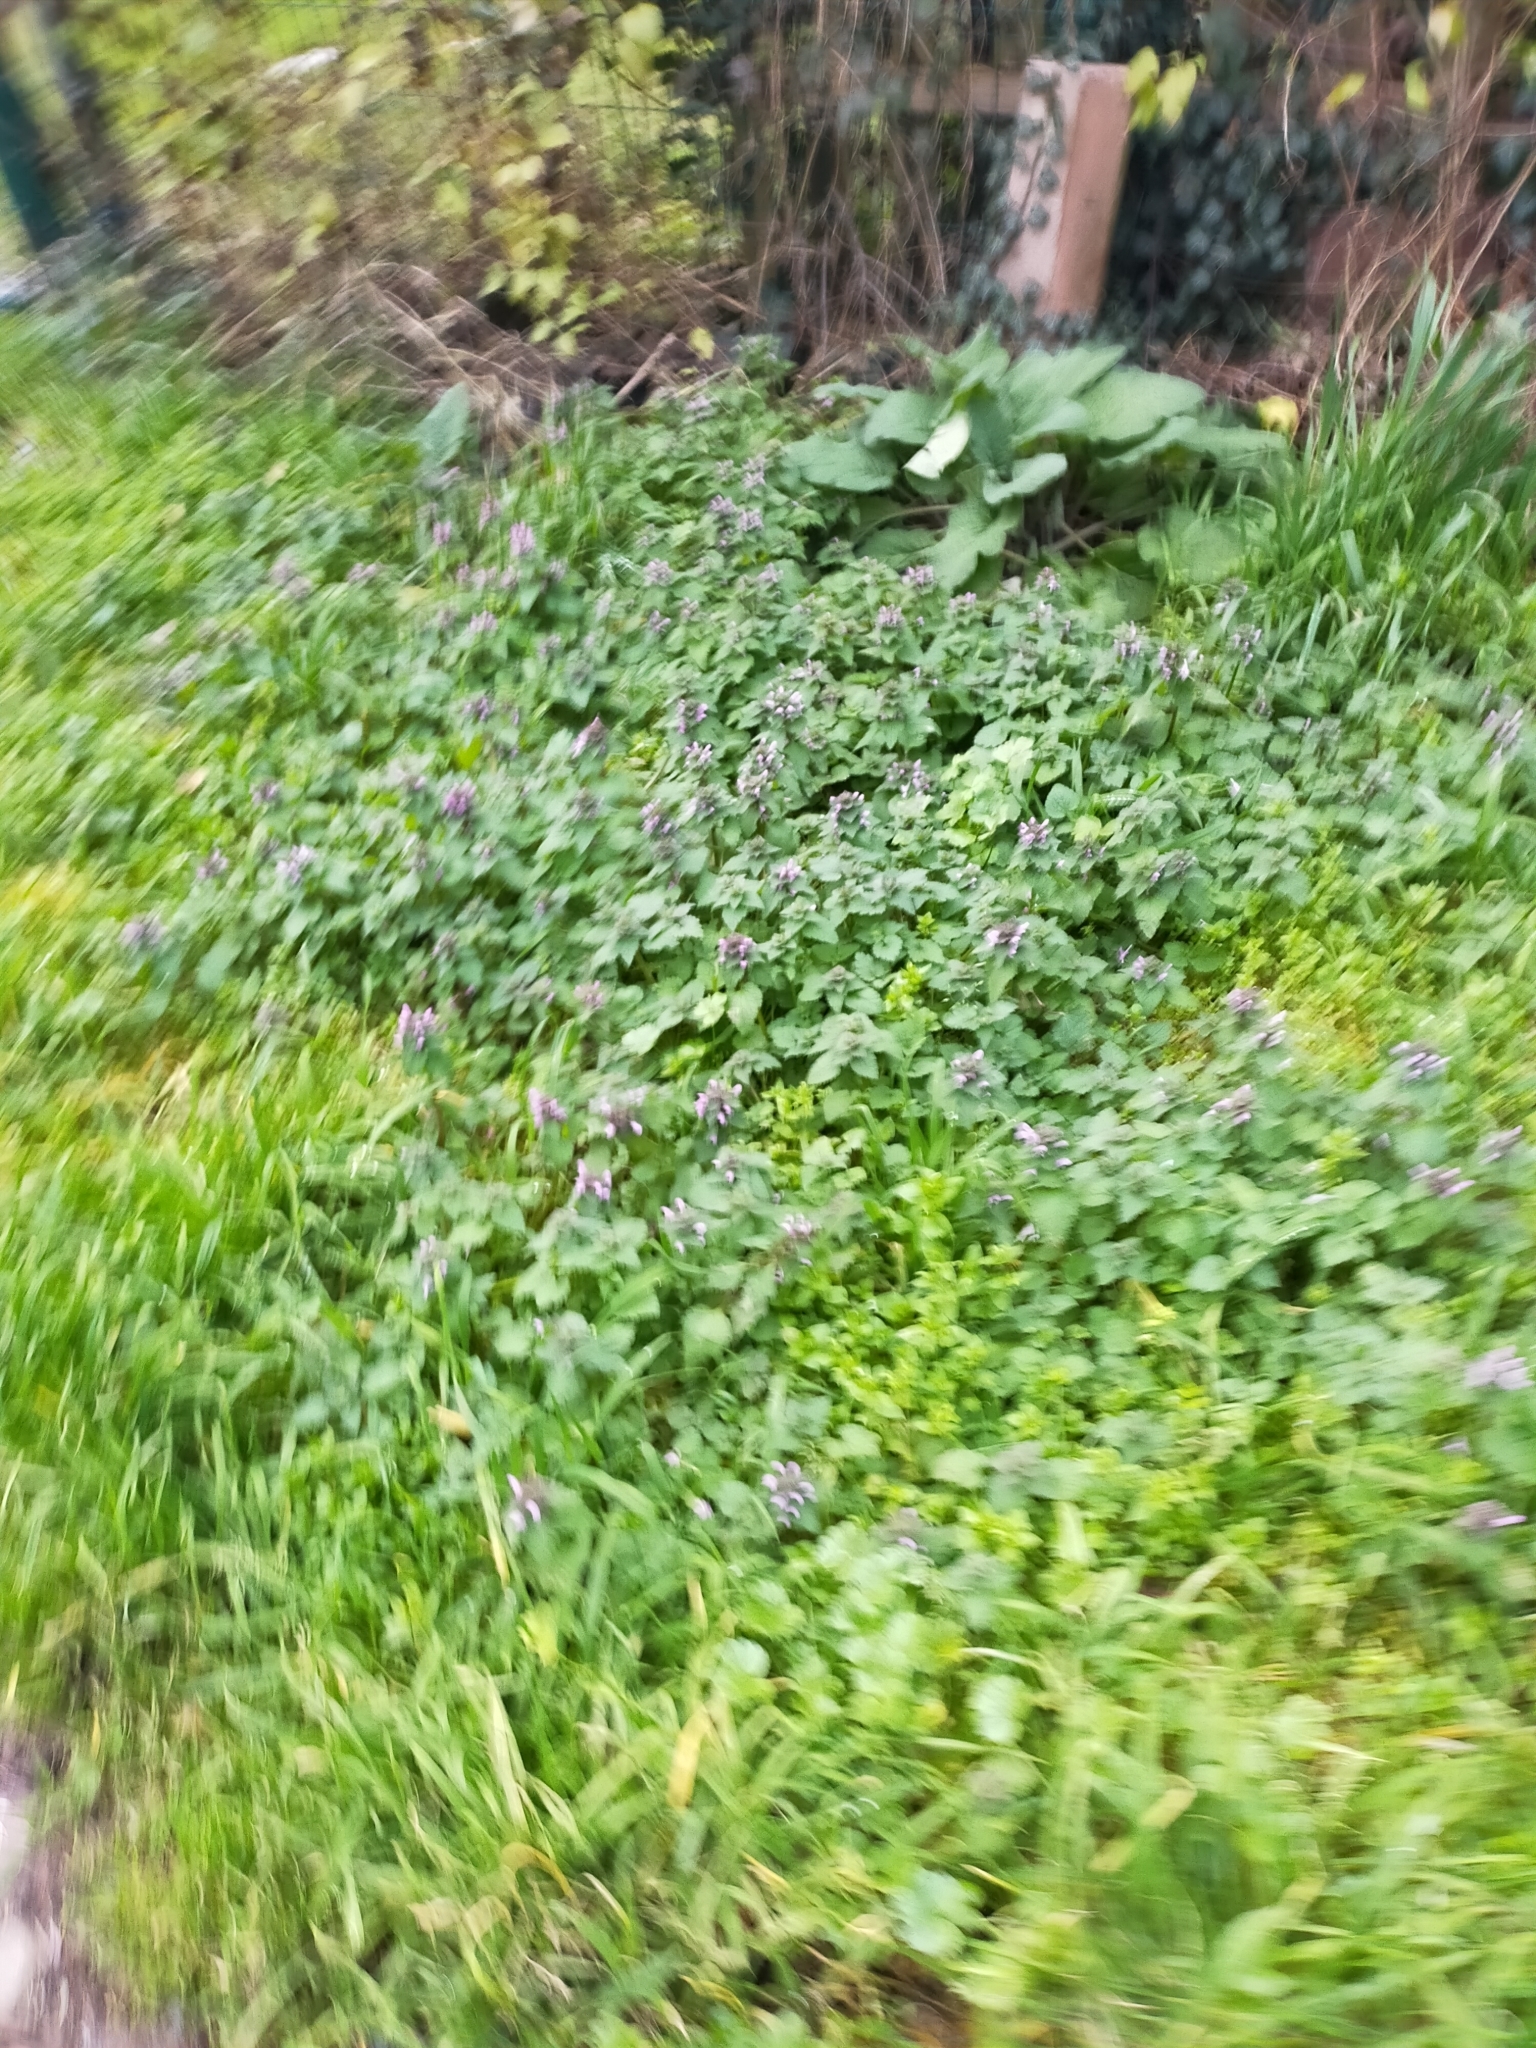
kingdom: Plantae
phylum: Tracheophyta
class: Magnoliopsida
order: Lamiales
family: Lamiaceae
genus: Lamium
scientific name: Lamium purpureum
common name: Red dead-nettle
